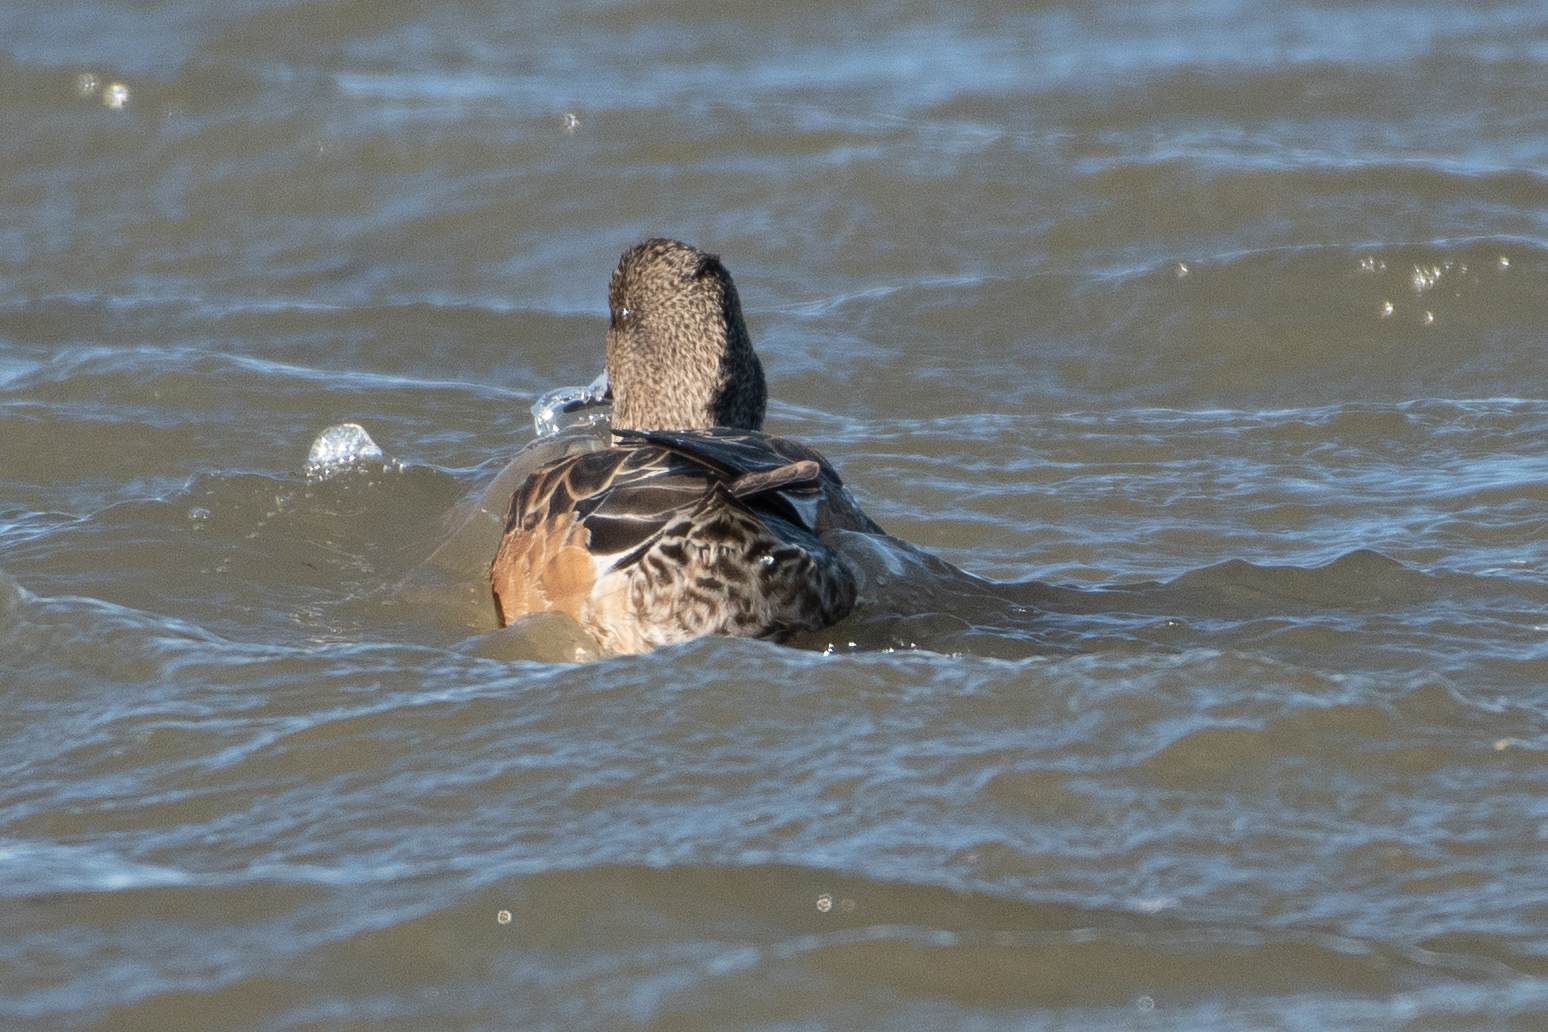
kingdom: Animalia
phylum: Chordata
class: Aves
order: Anseriformes
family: Anatidae
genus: Mareca
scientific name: Mareca americana
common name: American wigeon
